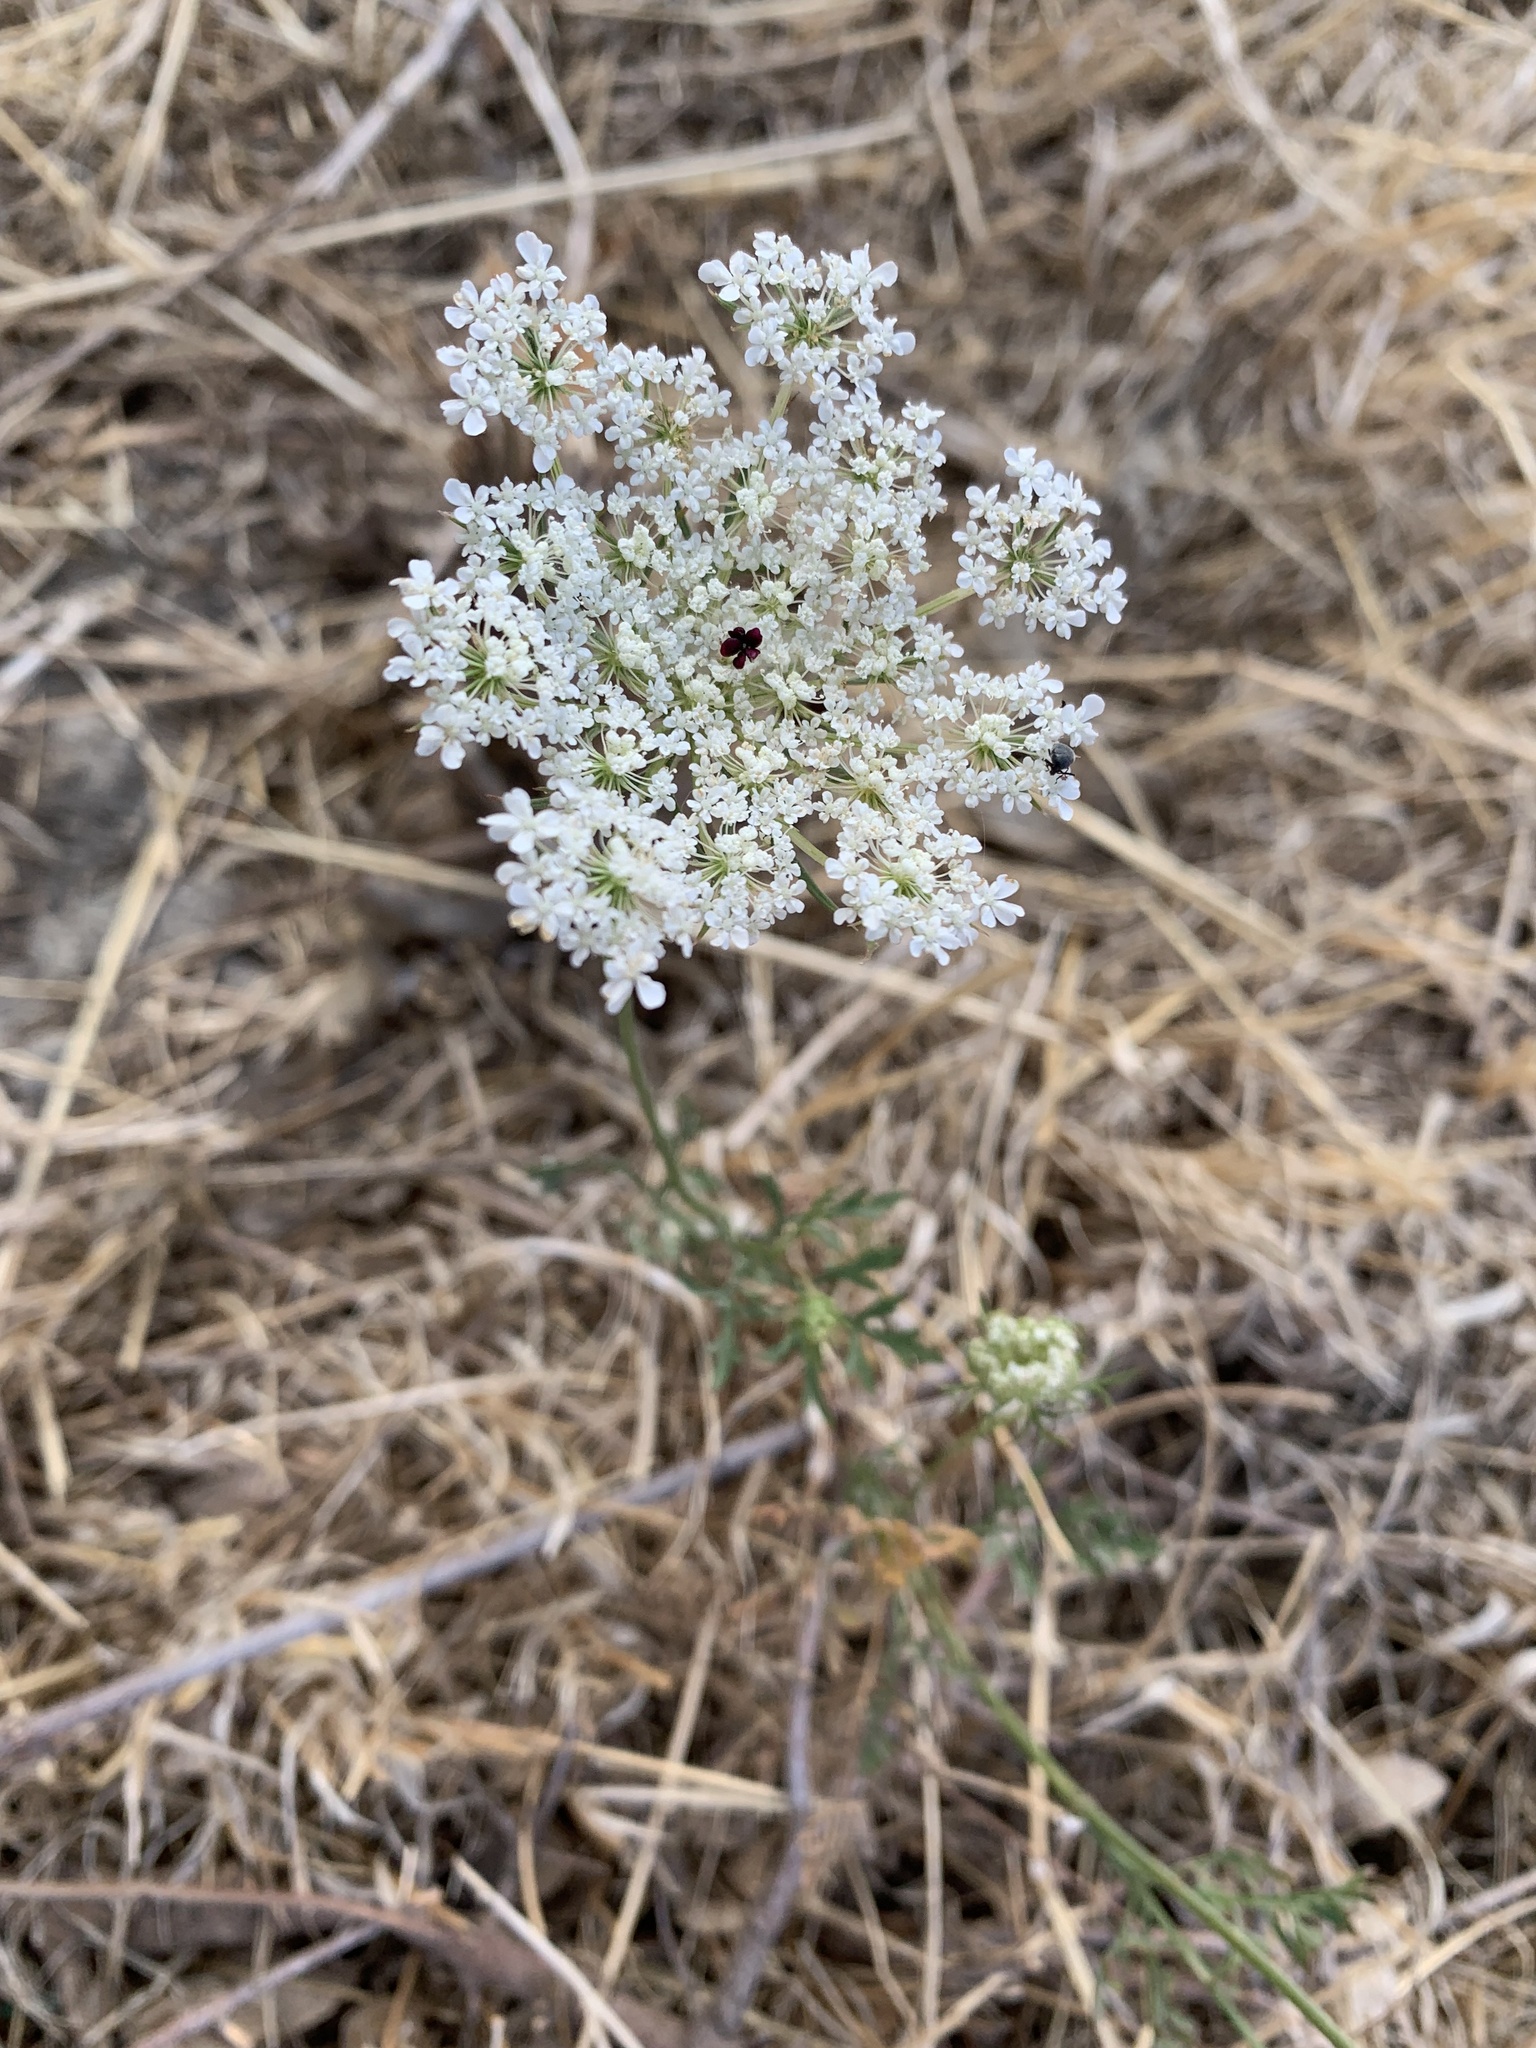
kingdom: Plantae
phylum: Tracheophyta
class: Magnoliopsida
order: Apiales
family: Apiaceae
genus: Daucus
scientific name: Daucus carota
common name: Wild carrot
